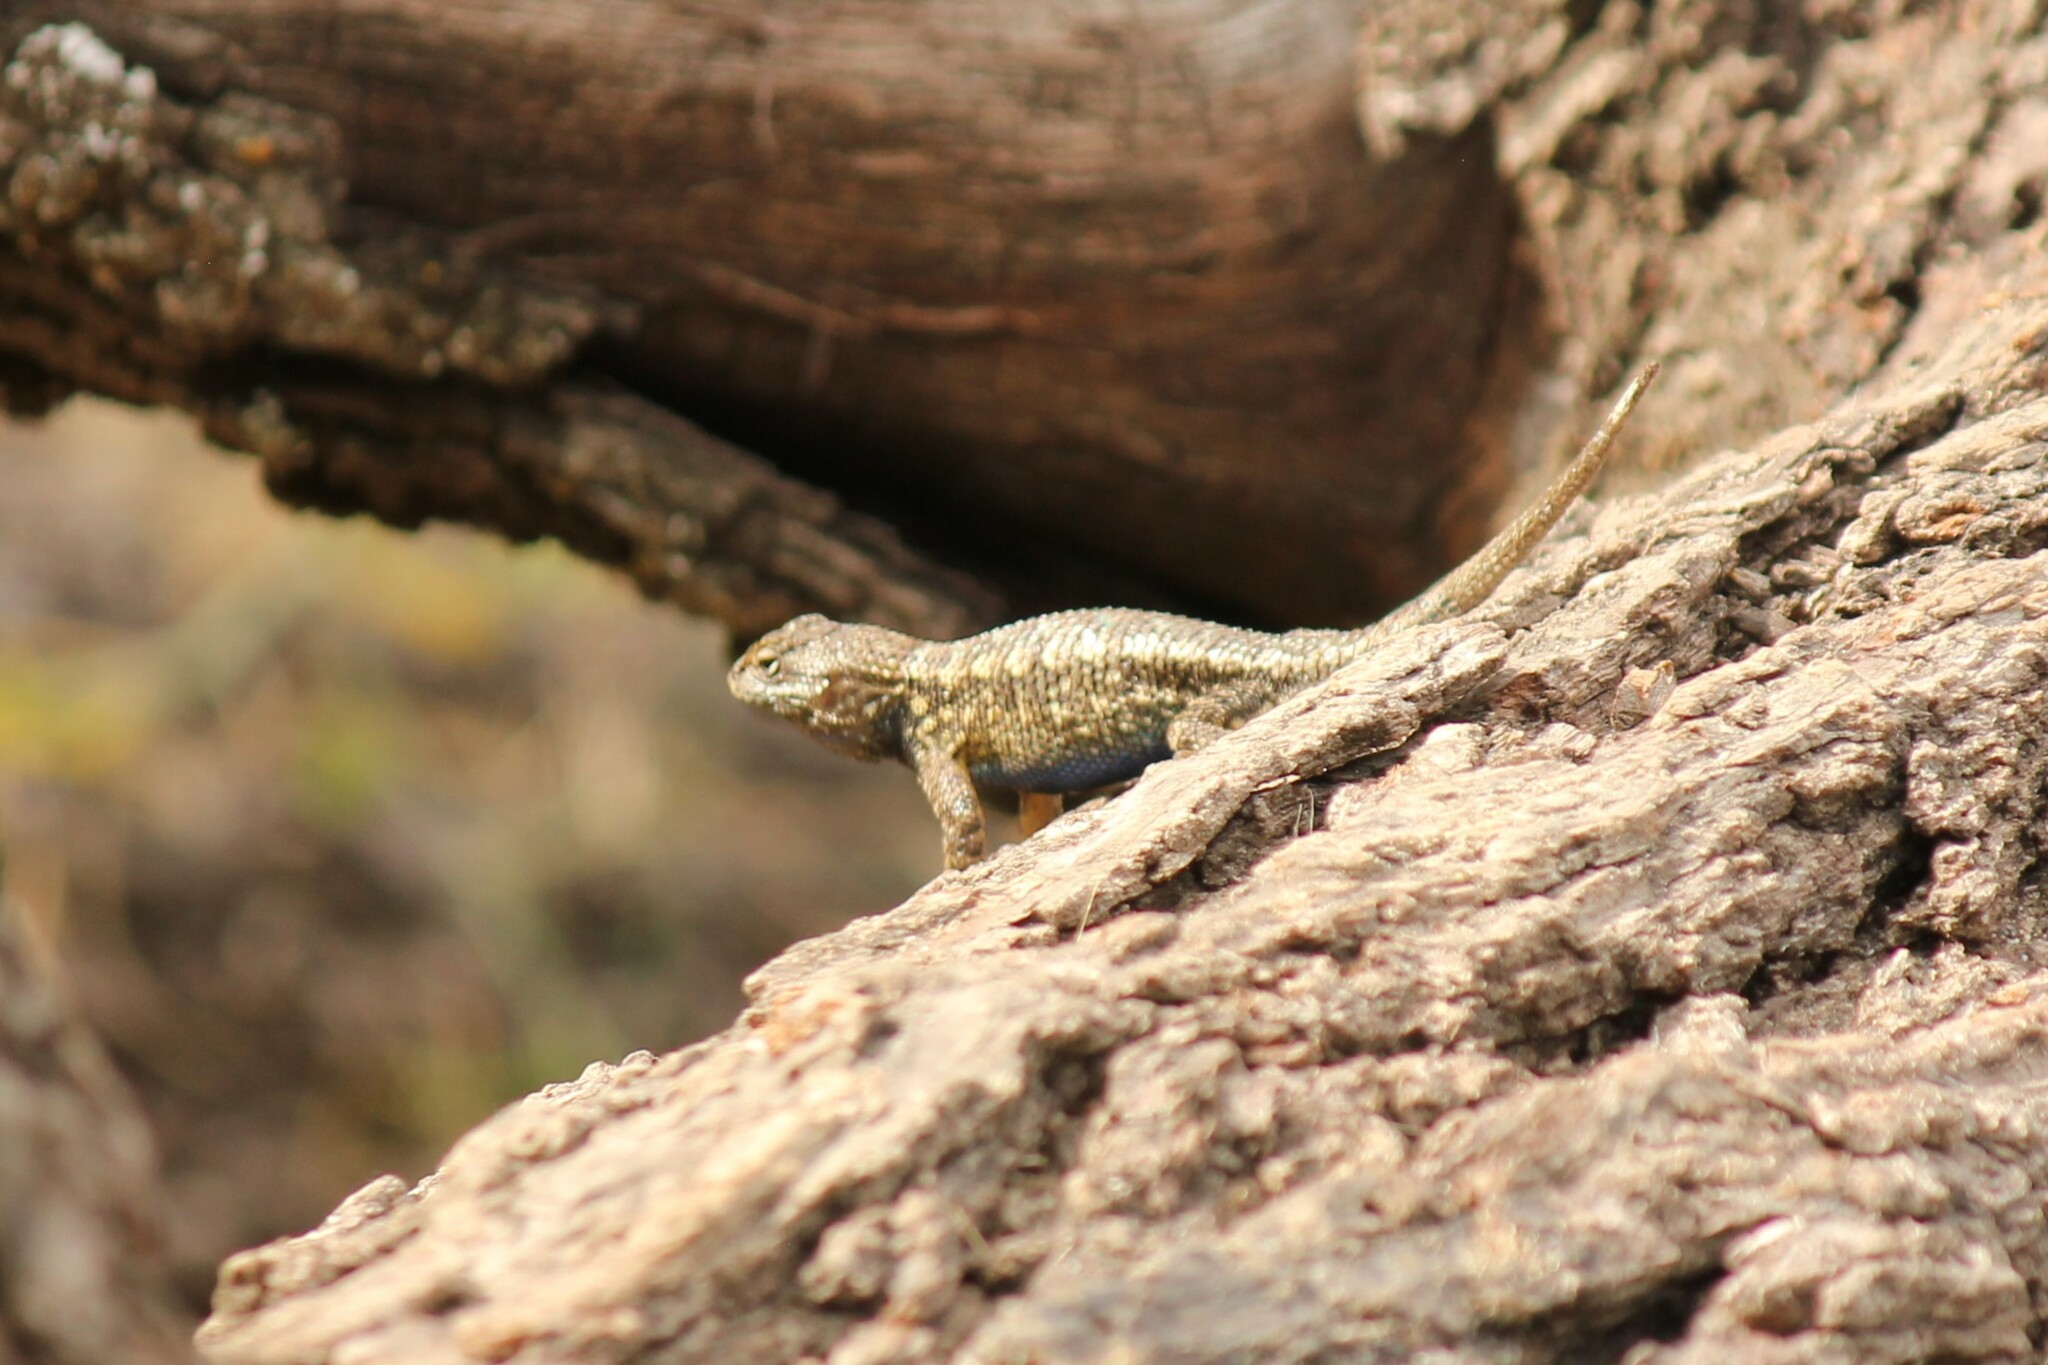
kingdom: Animalia
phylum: Chordata
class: Squamata
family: Phrynosomatidae
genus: Sceloporus
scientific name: Sceloporus occidentalis
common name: Western fence lizard
